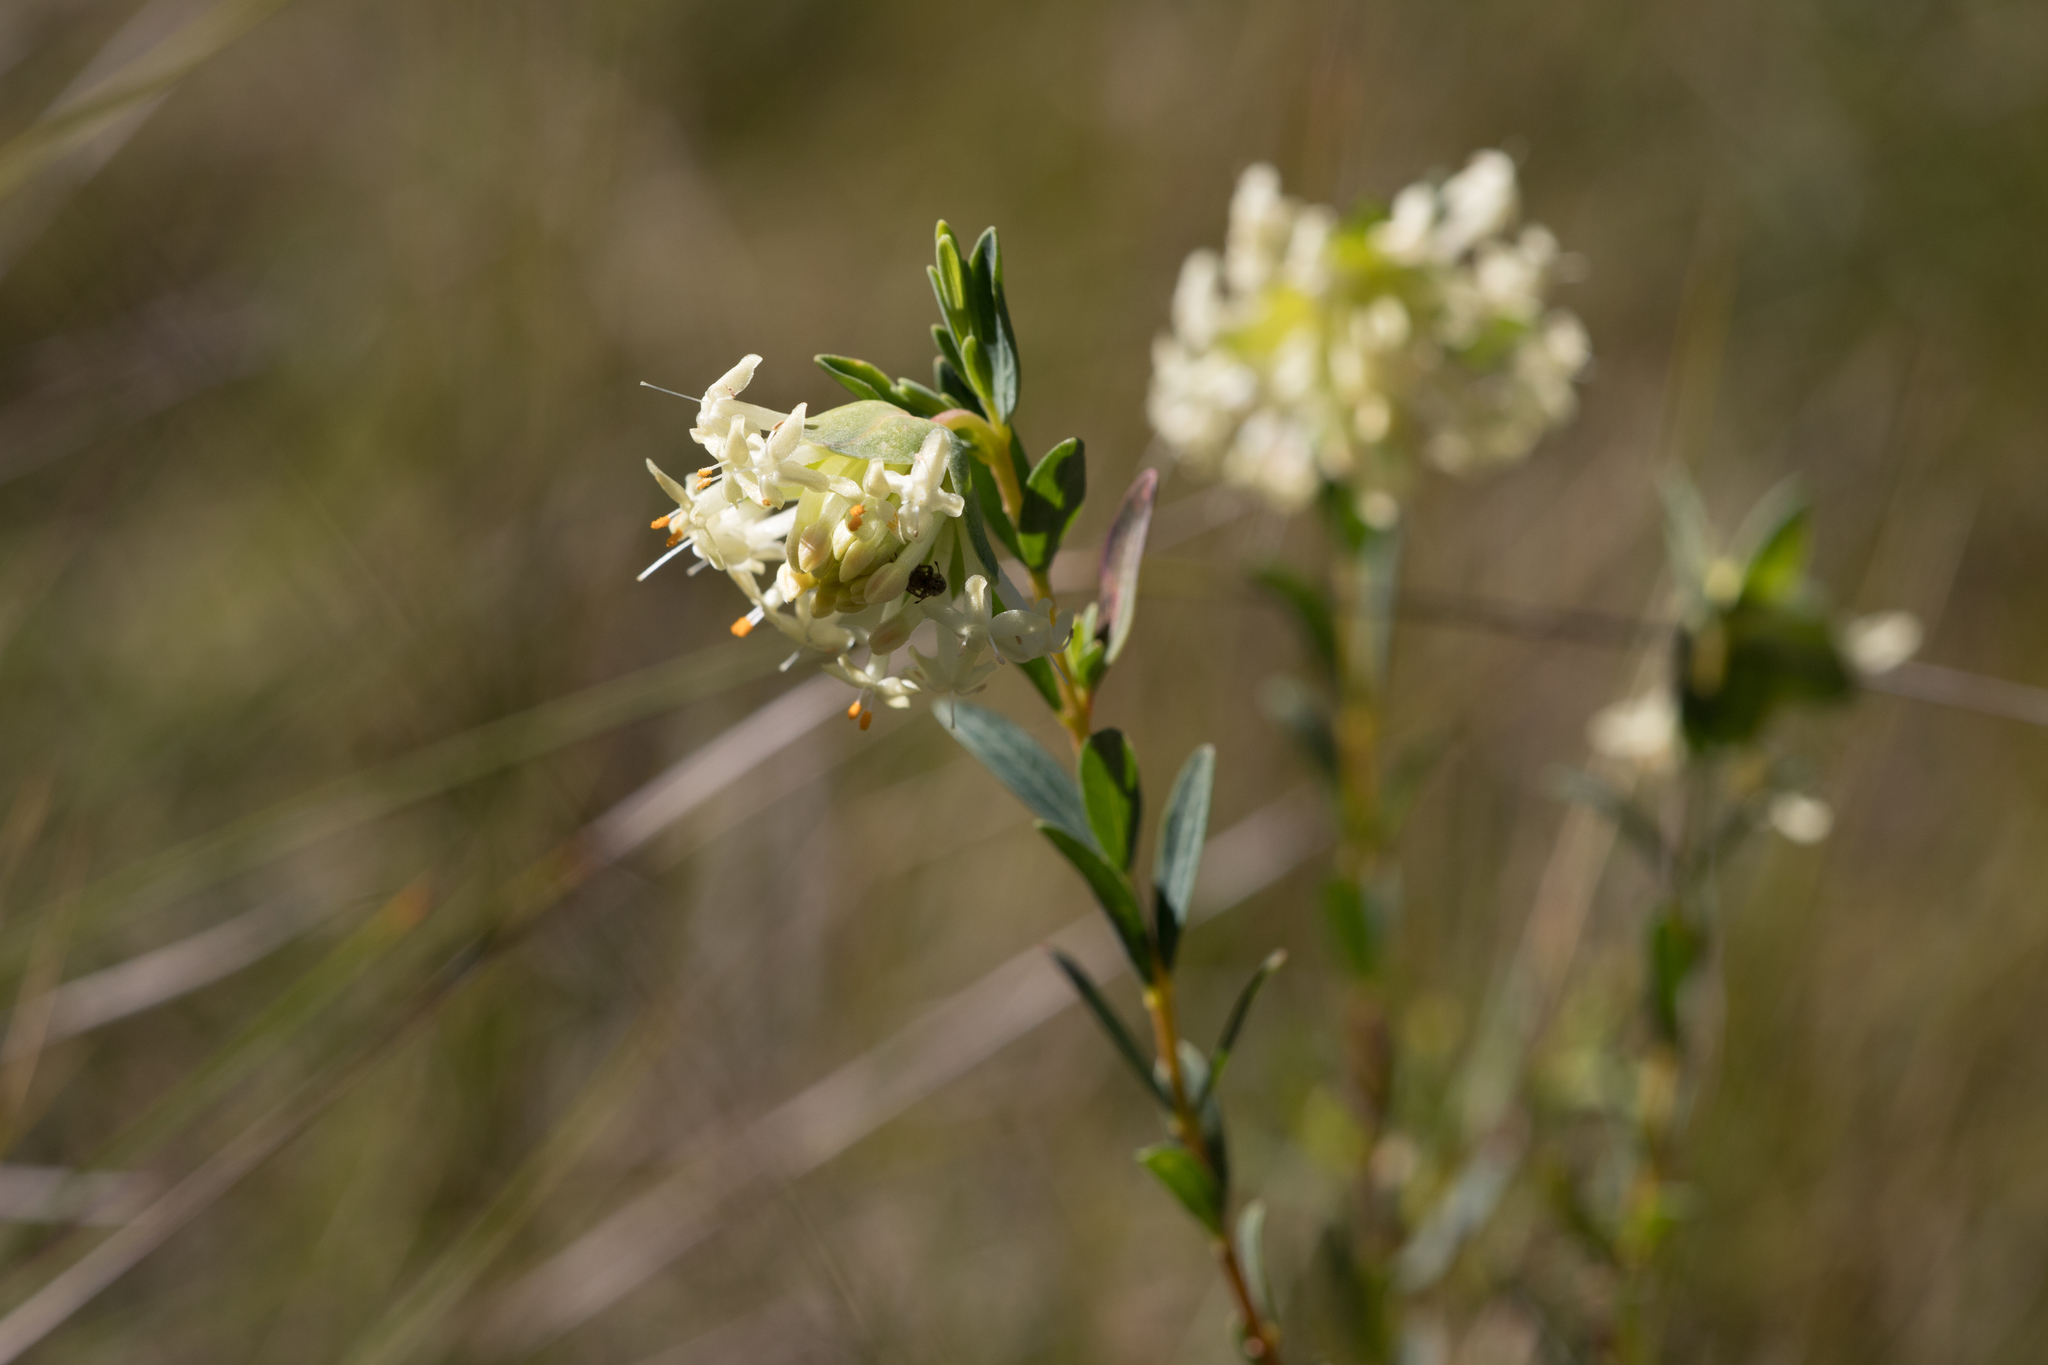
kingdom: Plantae
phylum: Tracheophyta
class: Magnoliopsida
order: Malvales
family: Thymelaeaceae
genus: Pimelea
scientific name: Pimelea linifolia
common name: Queen-of-the-bush
